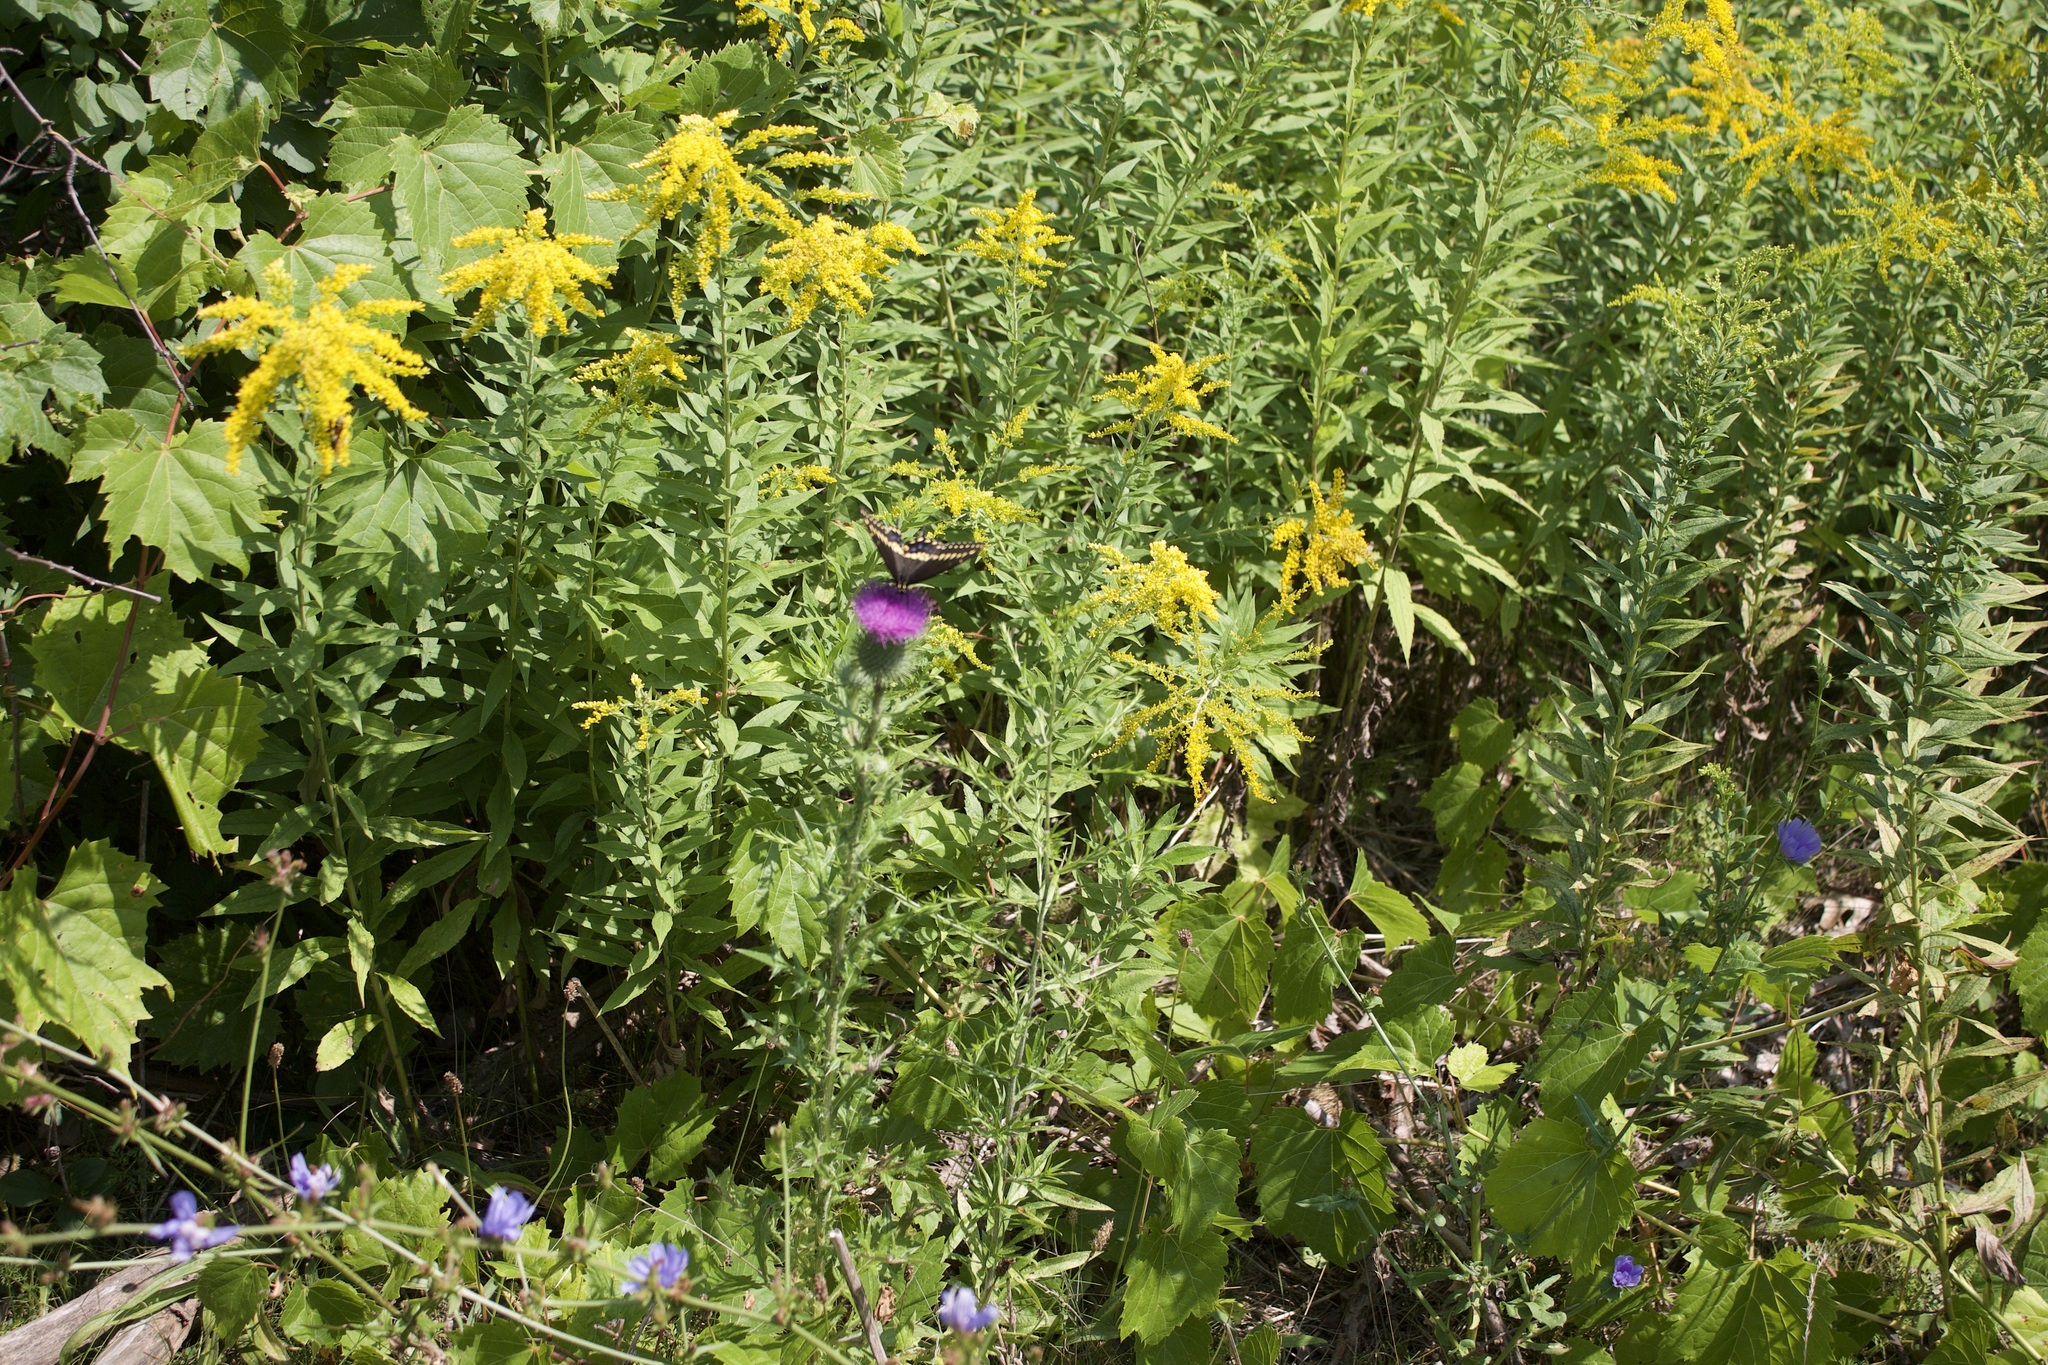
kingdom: Animalia
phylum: Arthropoda
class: Insecta
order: Lepidoptera
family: Papilionidae
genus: Papilio
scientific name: Papilio polyxenes
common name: Black swallowtail
